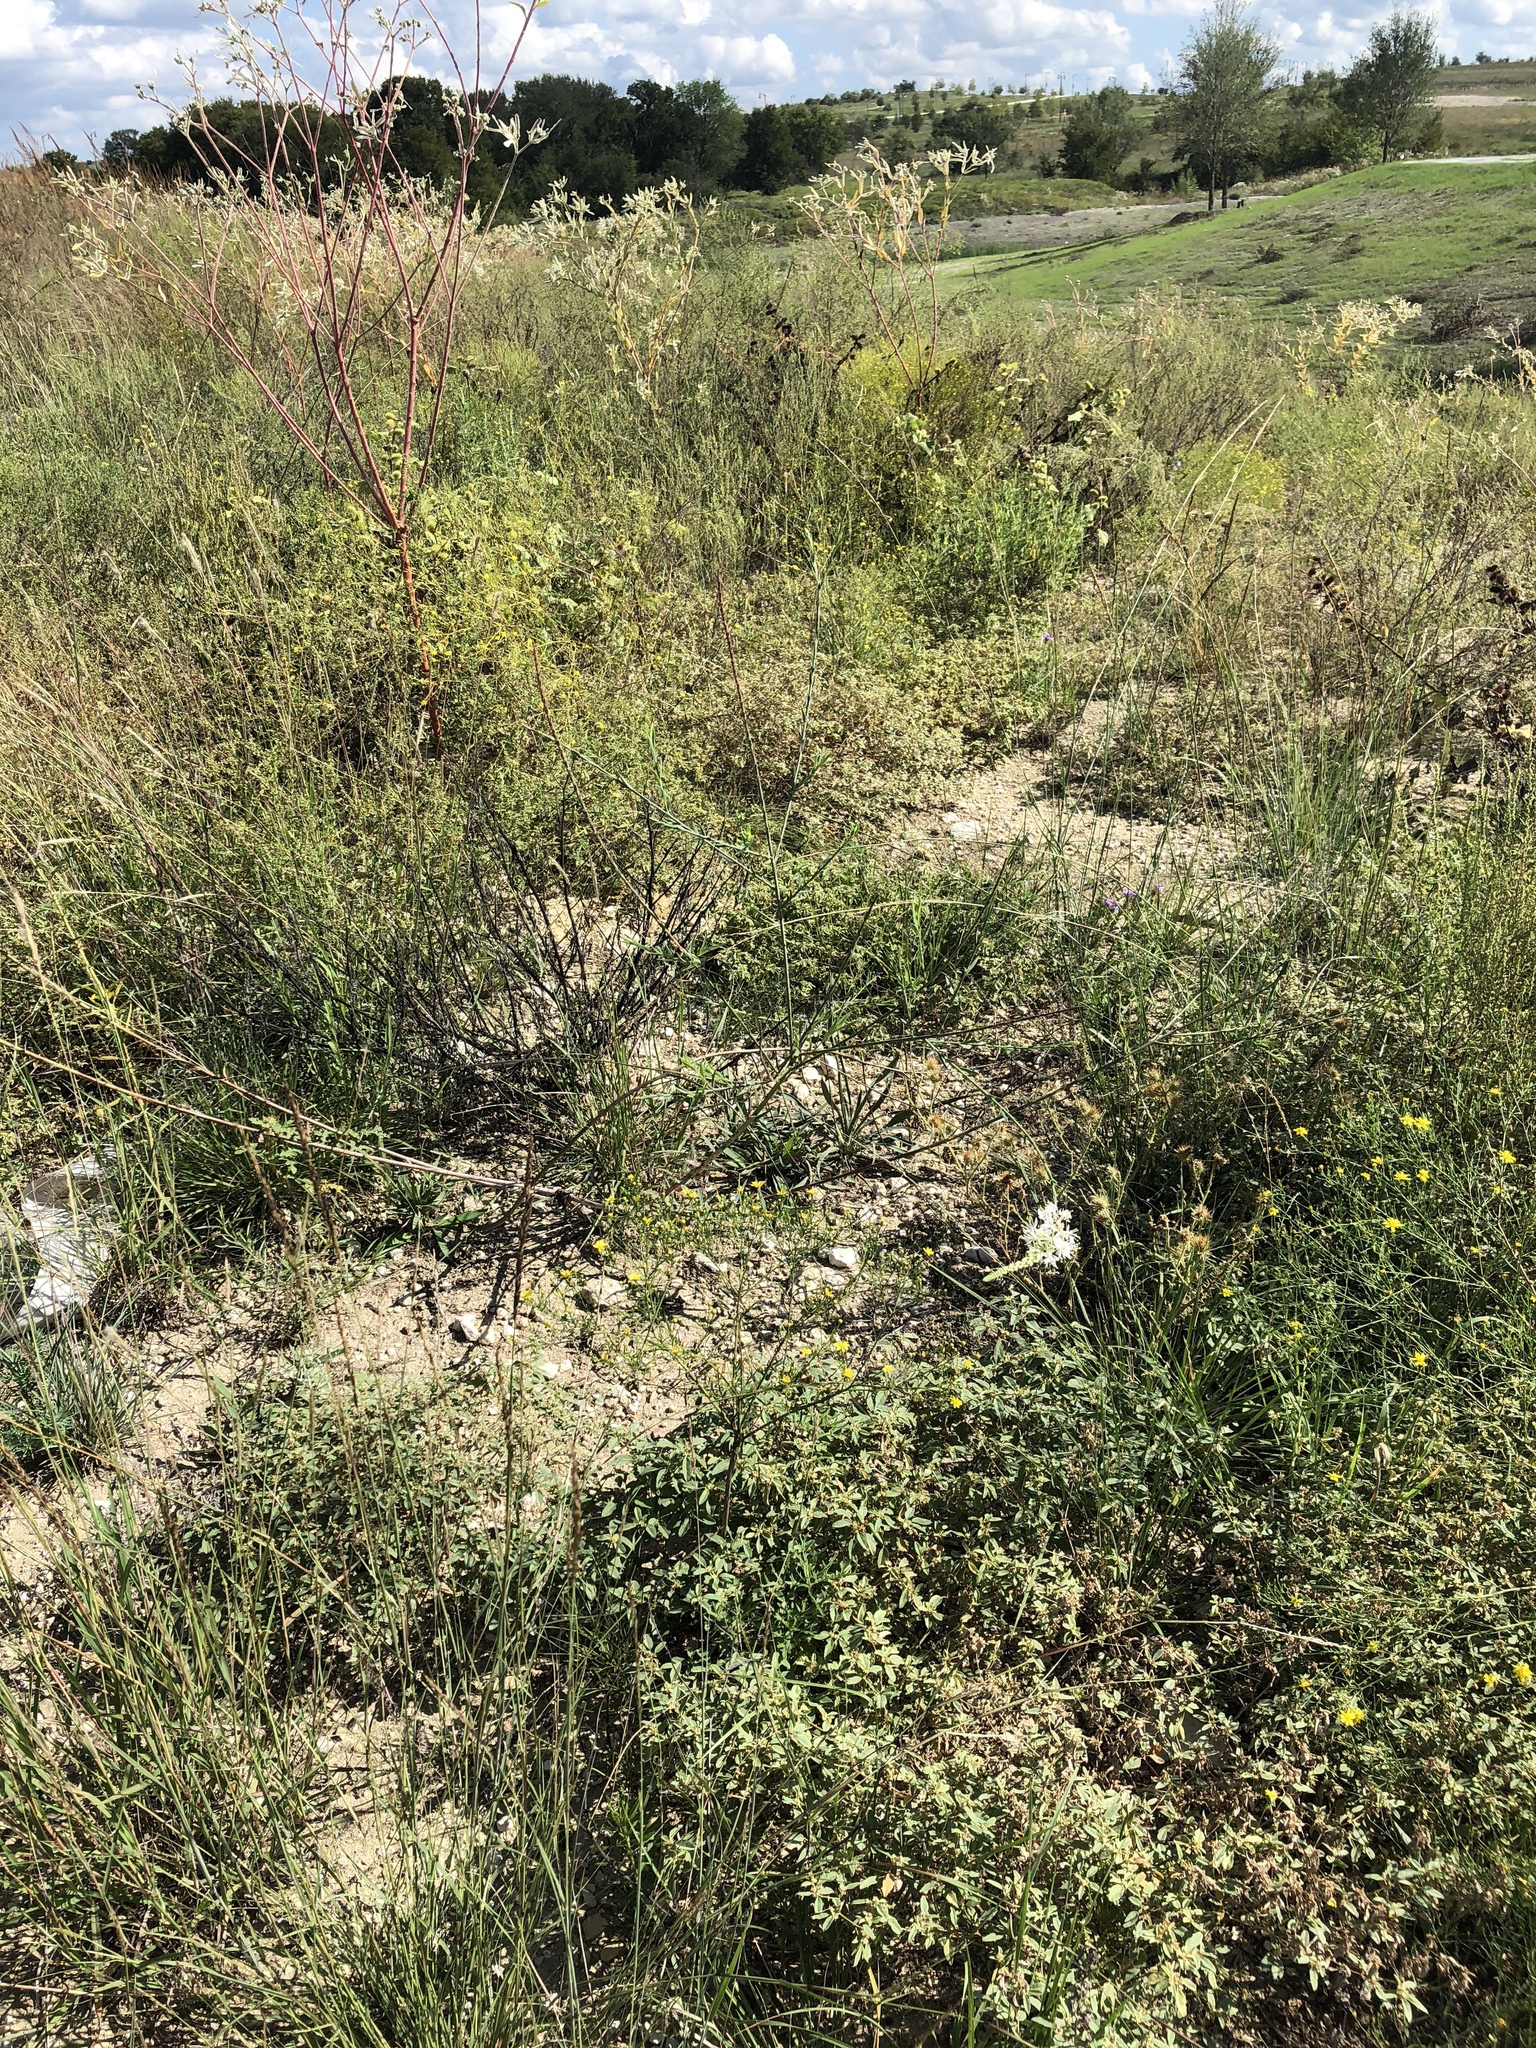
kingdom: Plantae
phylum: Tracheophyta
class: Magnoliopsida
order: Myrtales
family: Onagraceae
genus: Oenothera
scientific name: Oenothera glaucifolia
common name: False gaura
